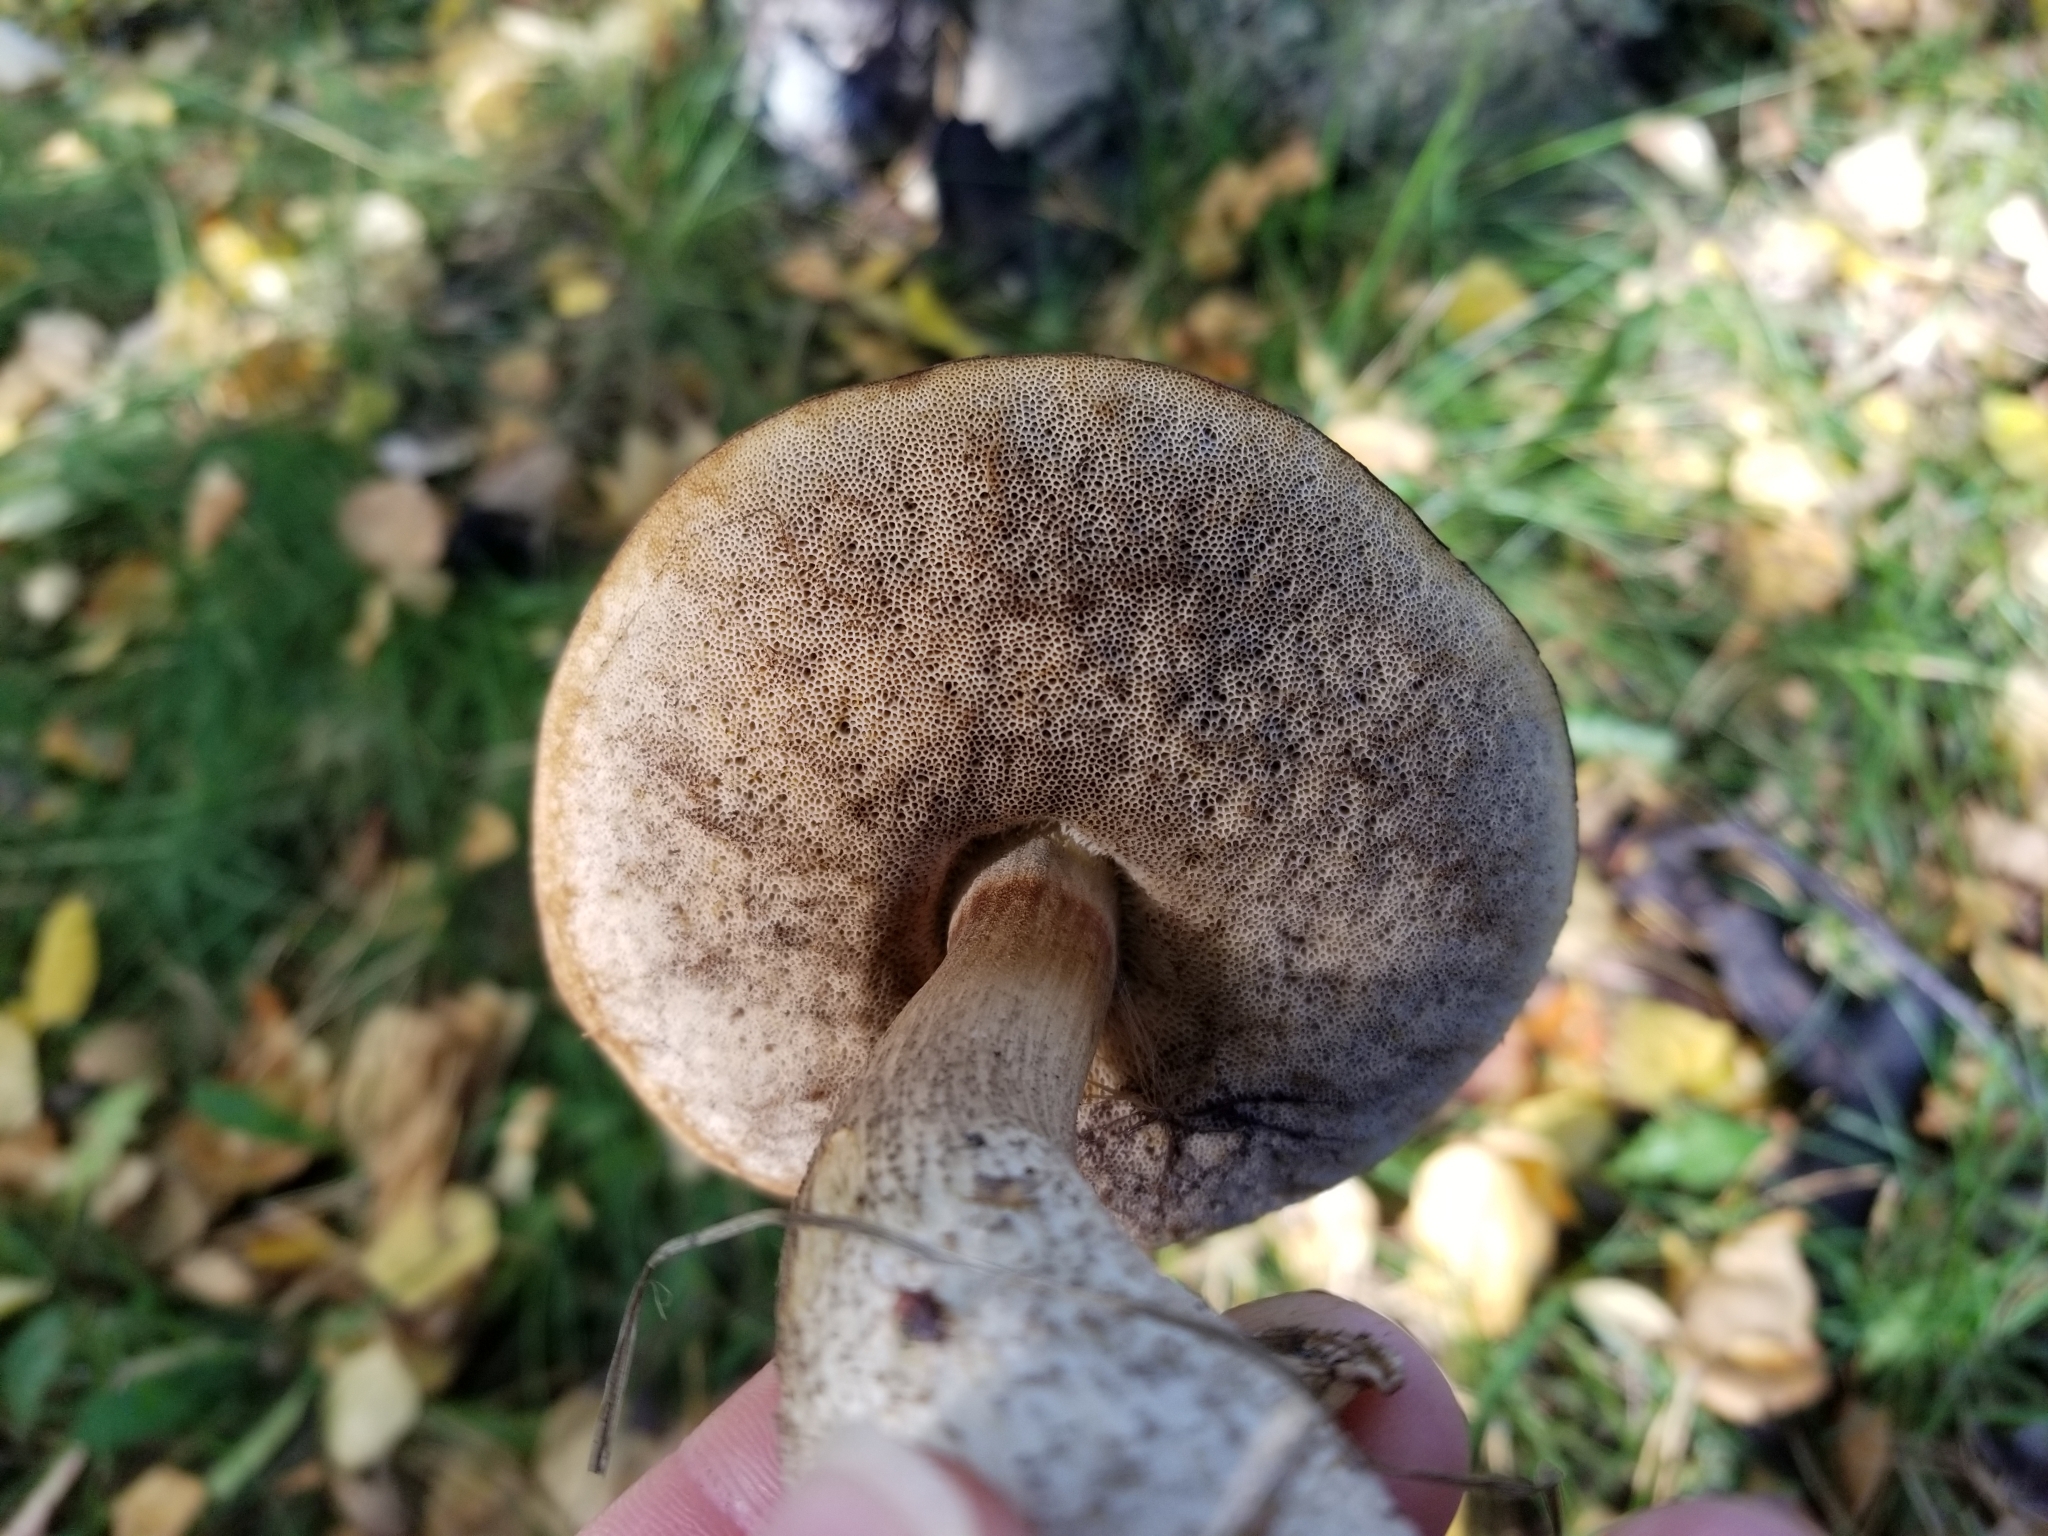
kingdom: Fungi
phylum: Basidiomycota
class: Agaricomycetes
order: Boletales
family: Boletaceae
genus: Leccinum
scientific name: Leccinum alaskanum
